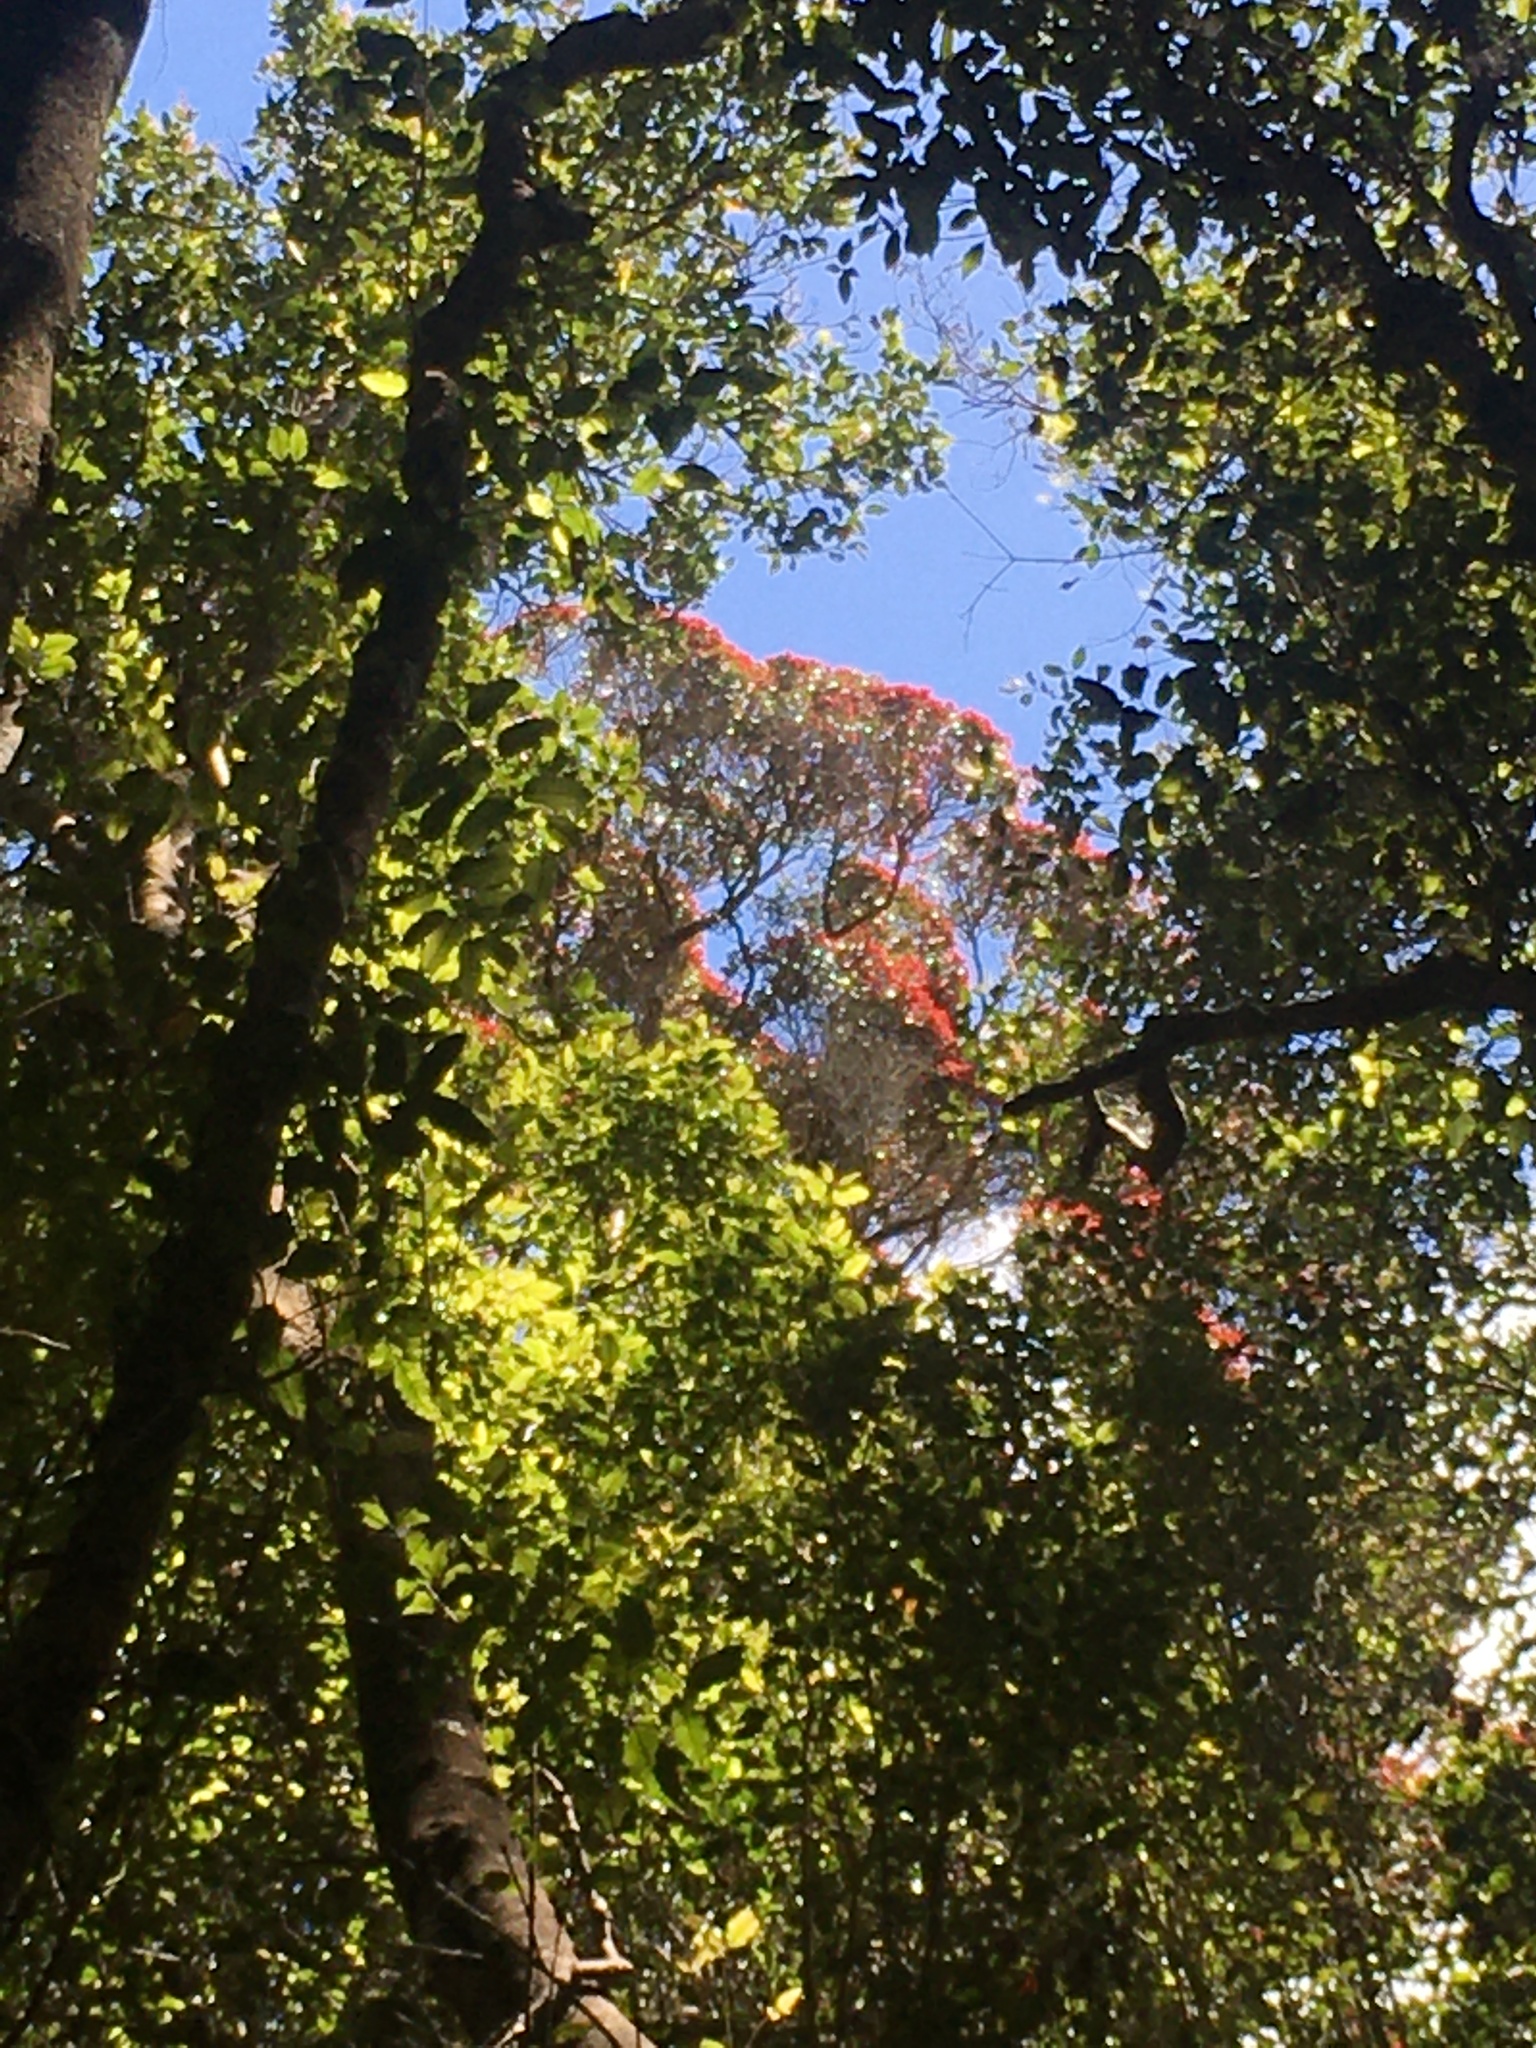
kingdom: Plantae
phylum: Tracheophyta
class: Magnoliopsida
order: Myrtales
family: Myrtaceae
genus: Metrosideros
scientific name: Metrosideros robusta
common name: Northern rata
